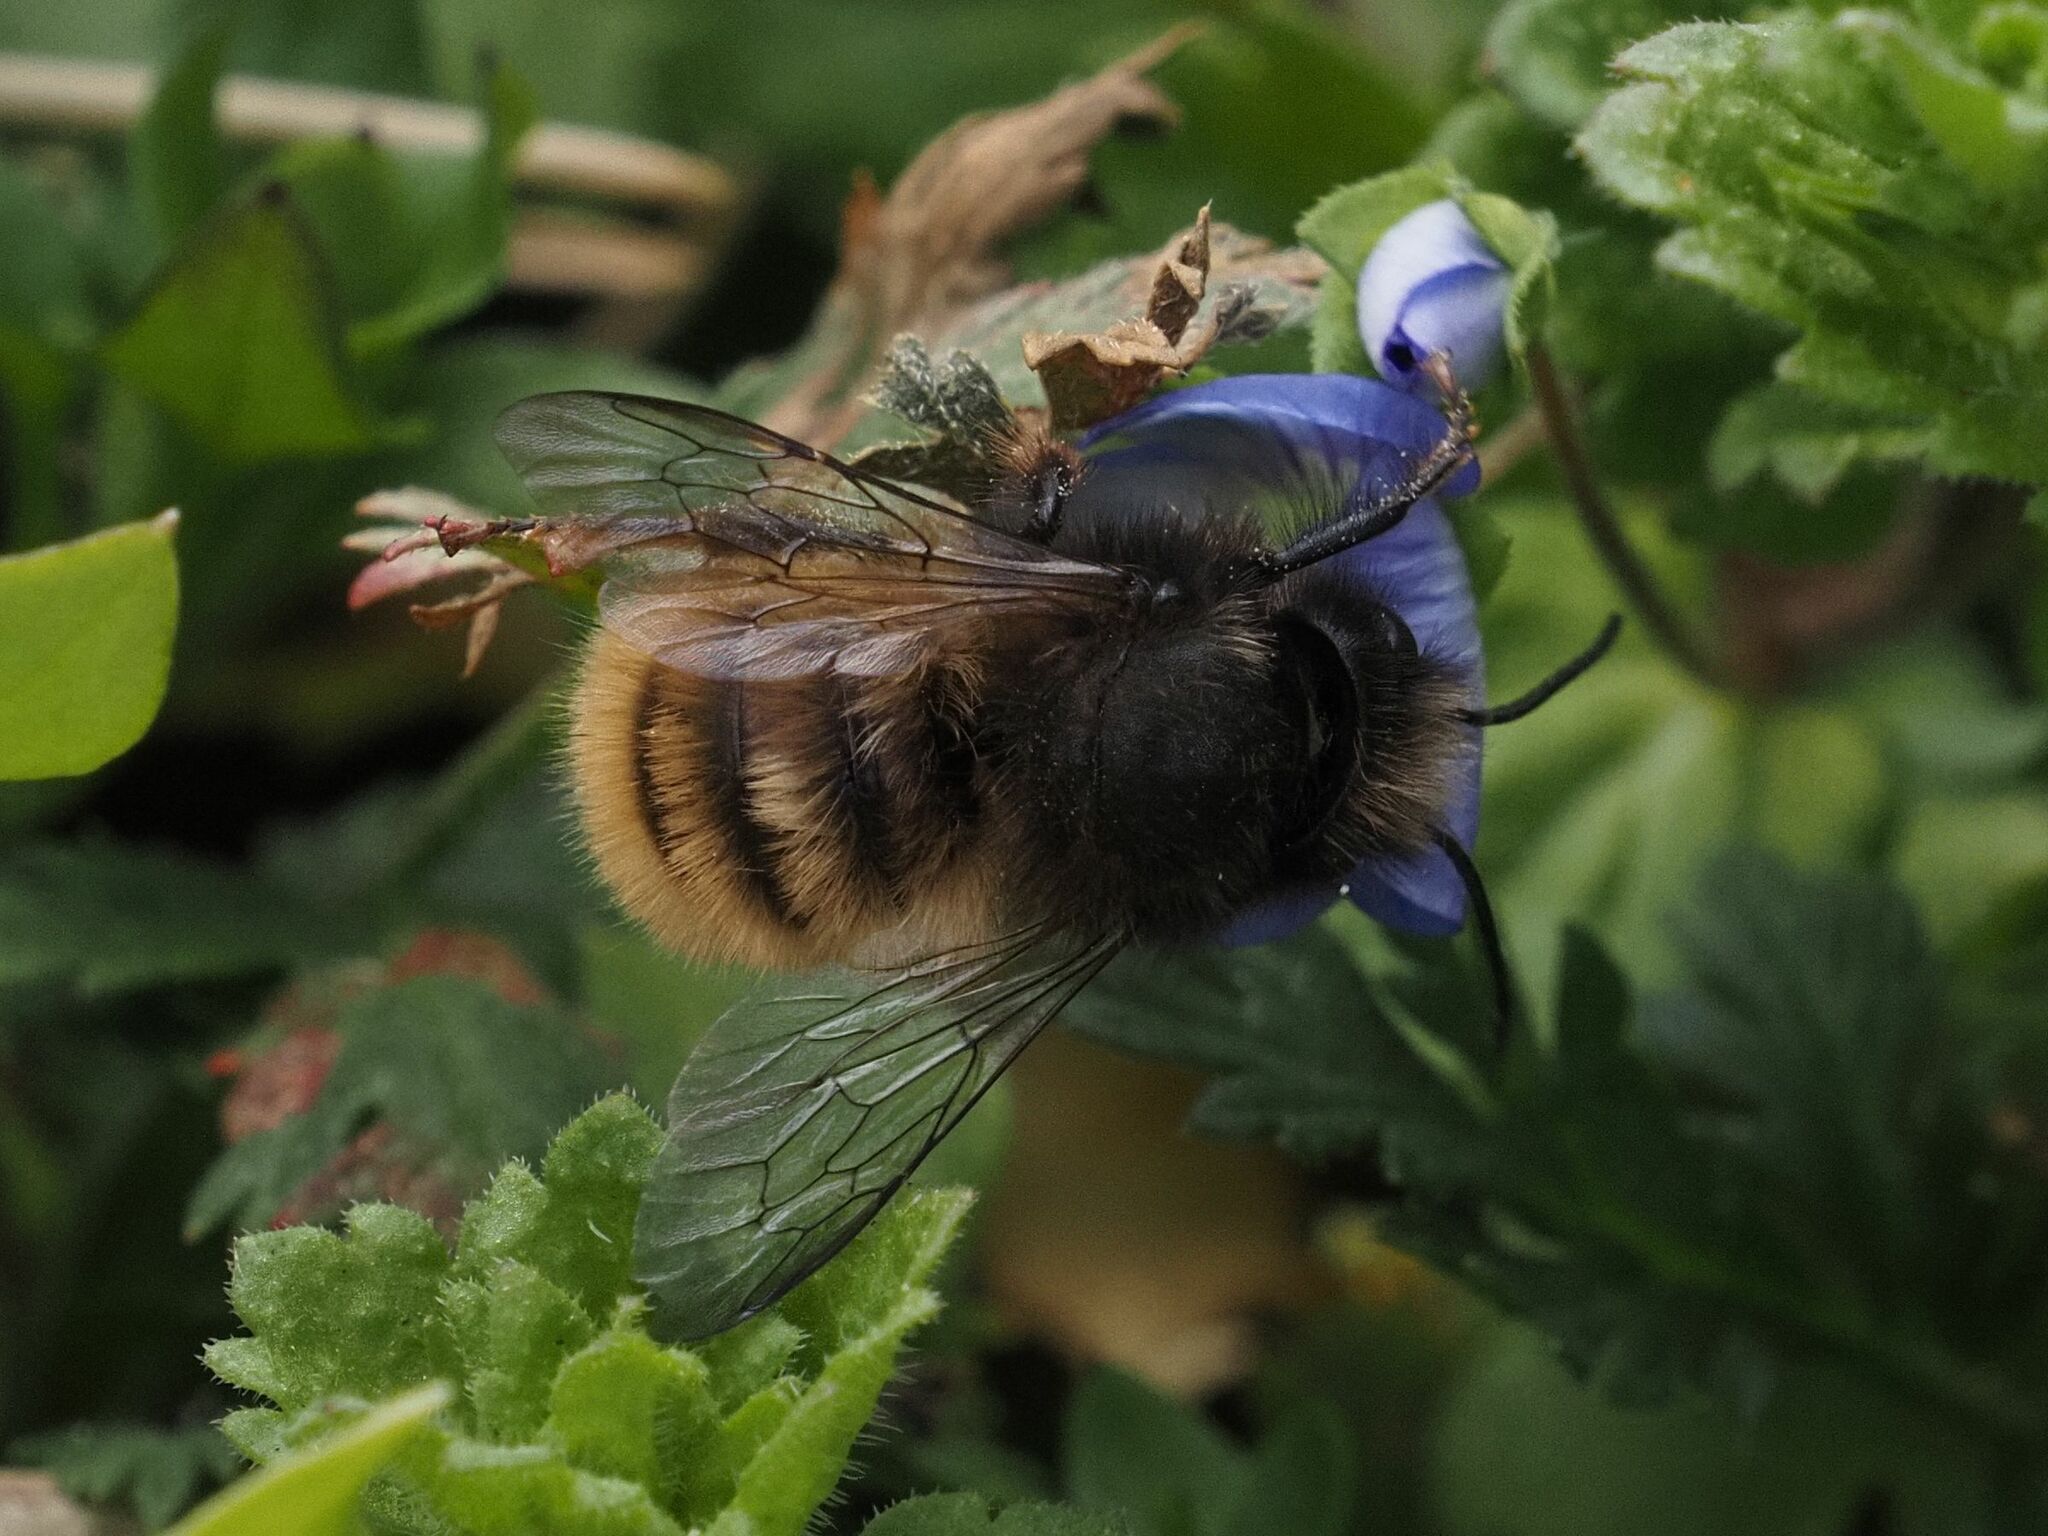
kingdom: Animalia
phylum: Arthropoda
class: Insecta
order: Hymenoptera
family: Megachilidae
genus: Osmia
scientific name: Osmia cornuta
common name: Mason bee
